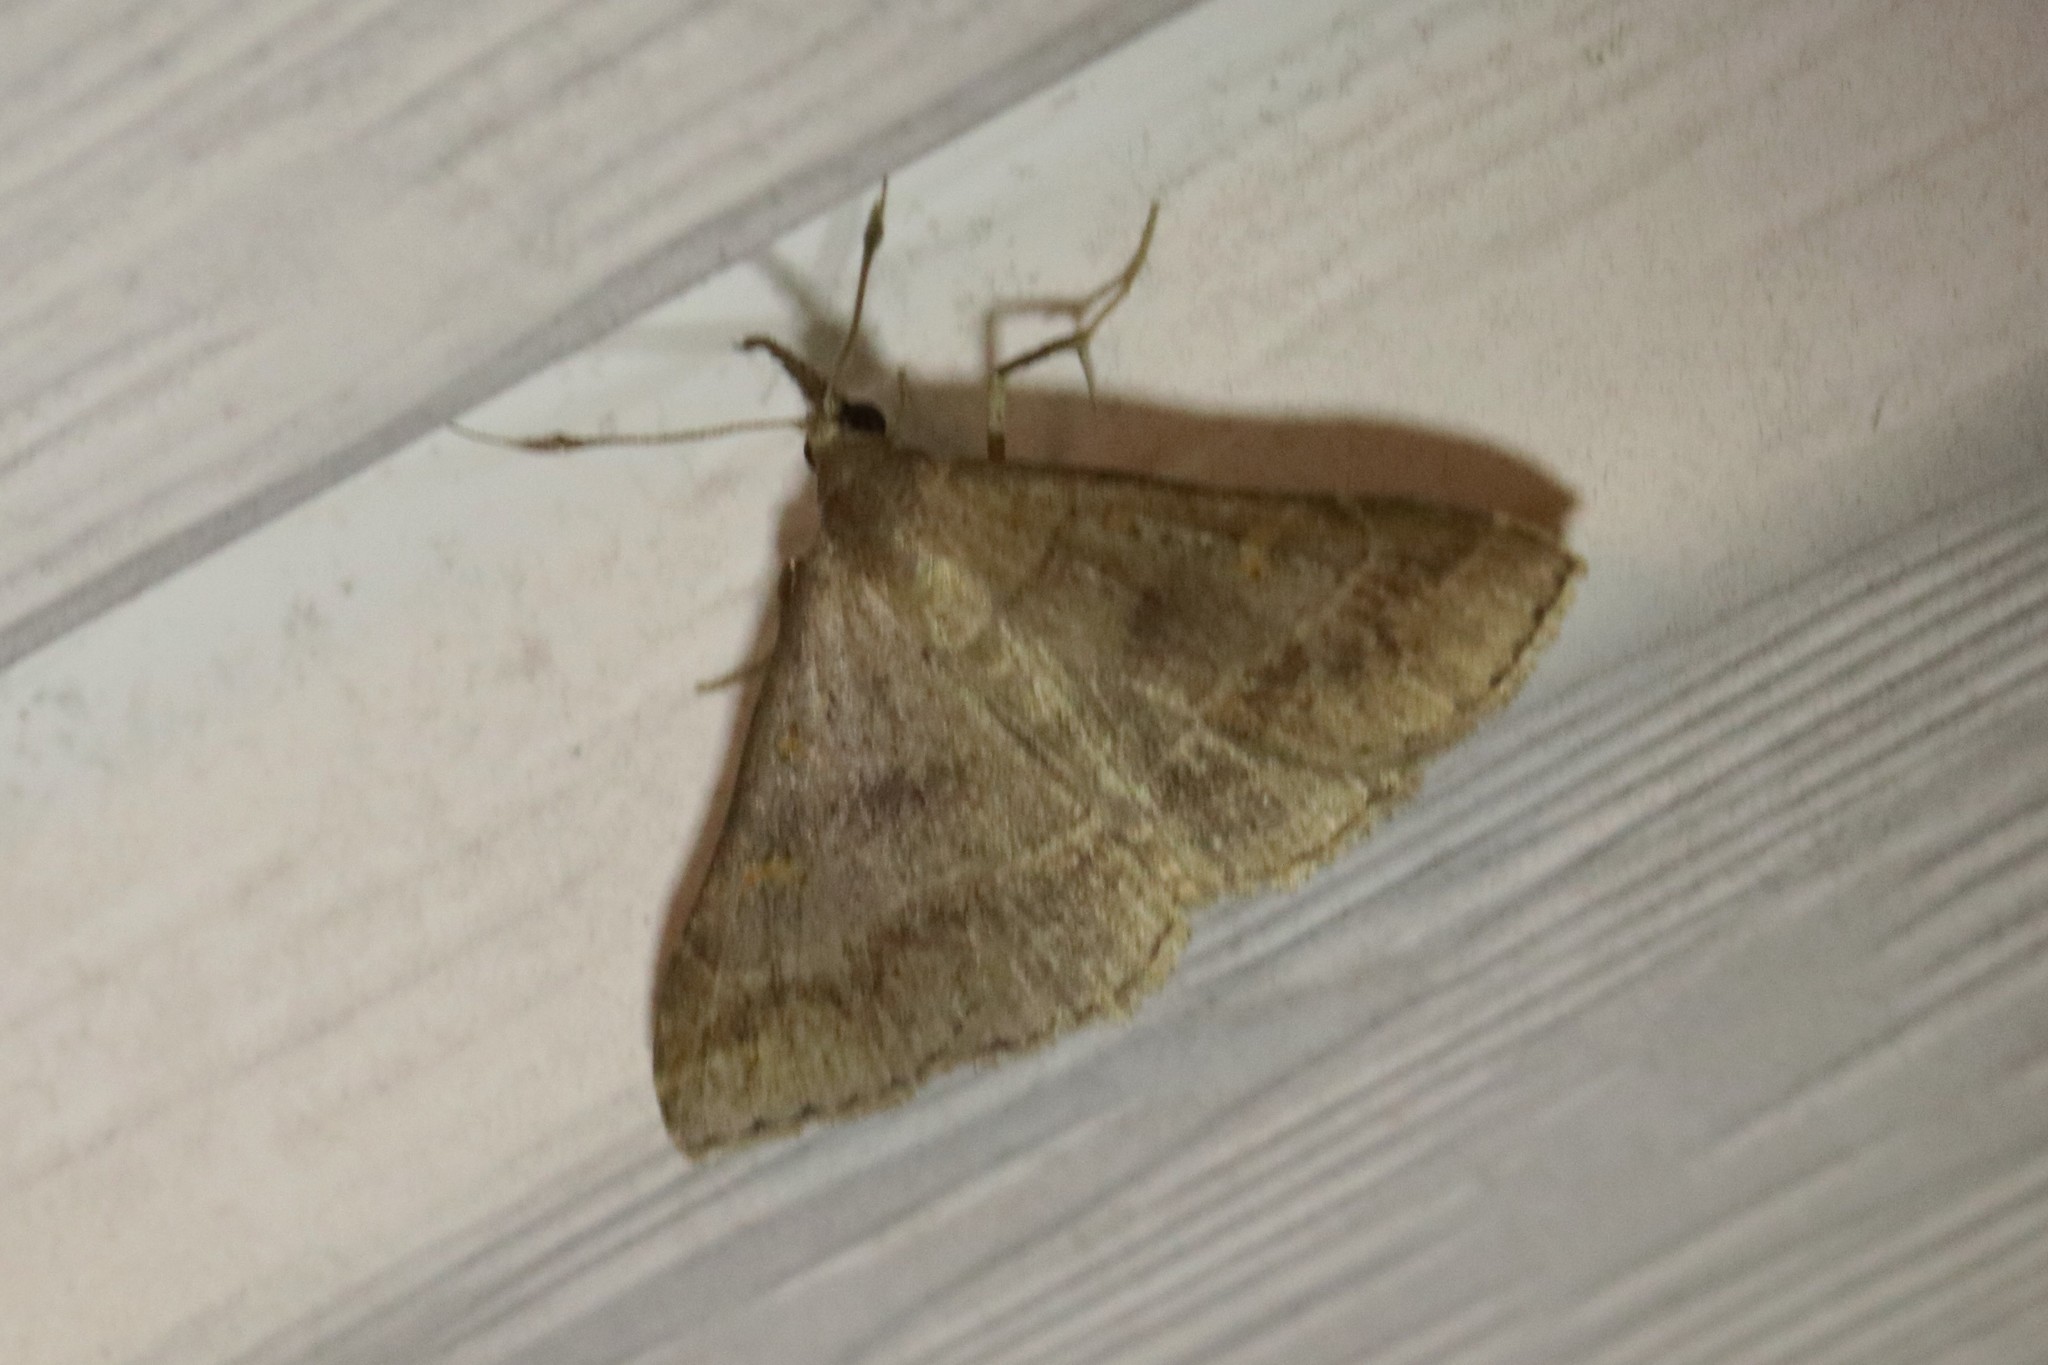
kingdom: Animalia
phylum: Arthropoda
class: Insecta
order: Lepidoptera
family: Erebidae
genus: Renia
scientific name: Renia flavipunctalis
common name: Yellow-spotted renia moth
